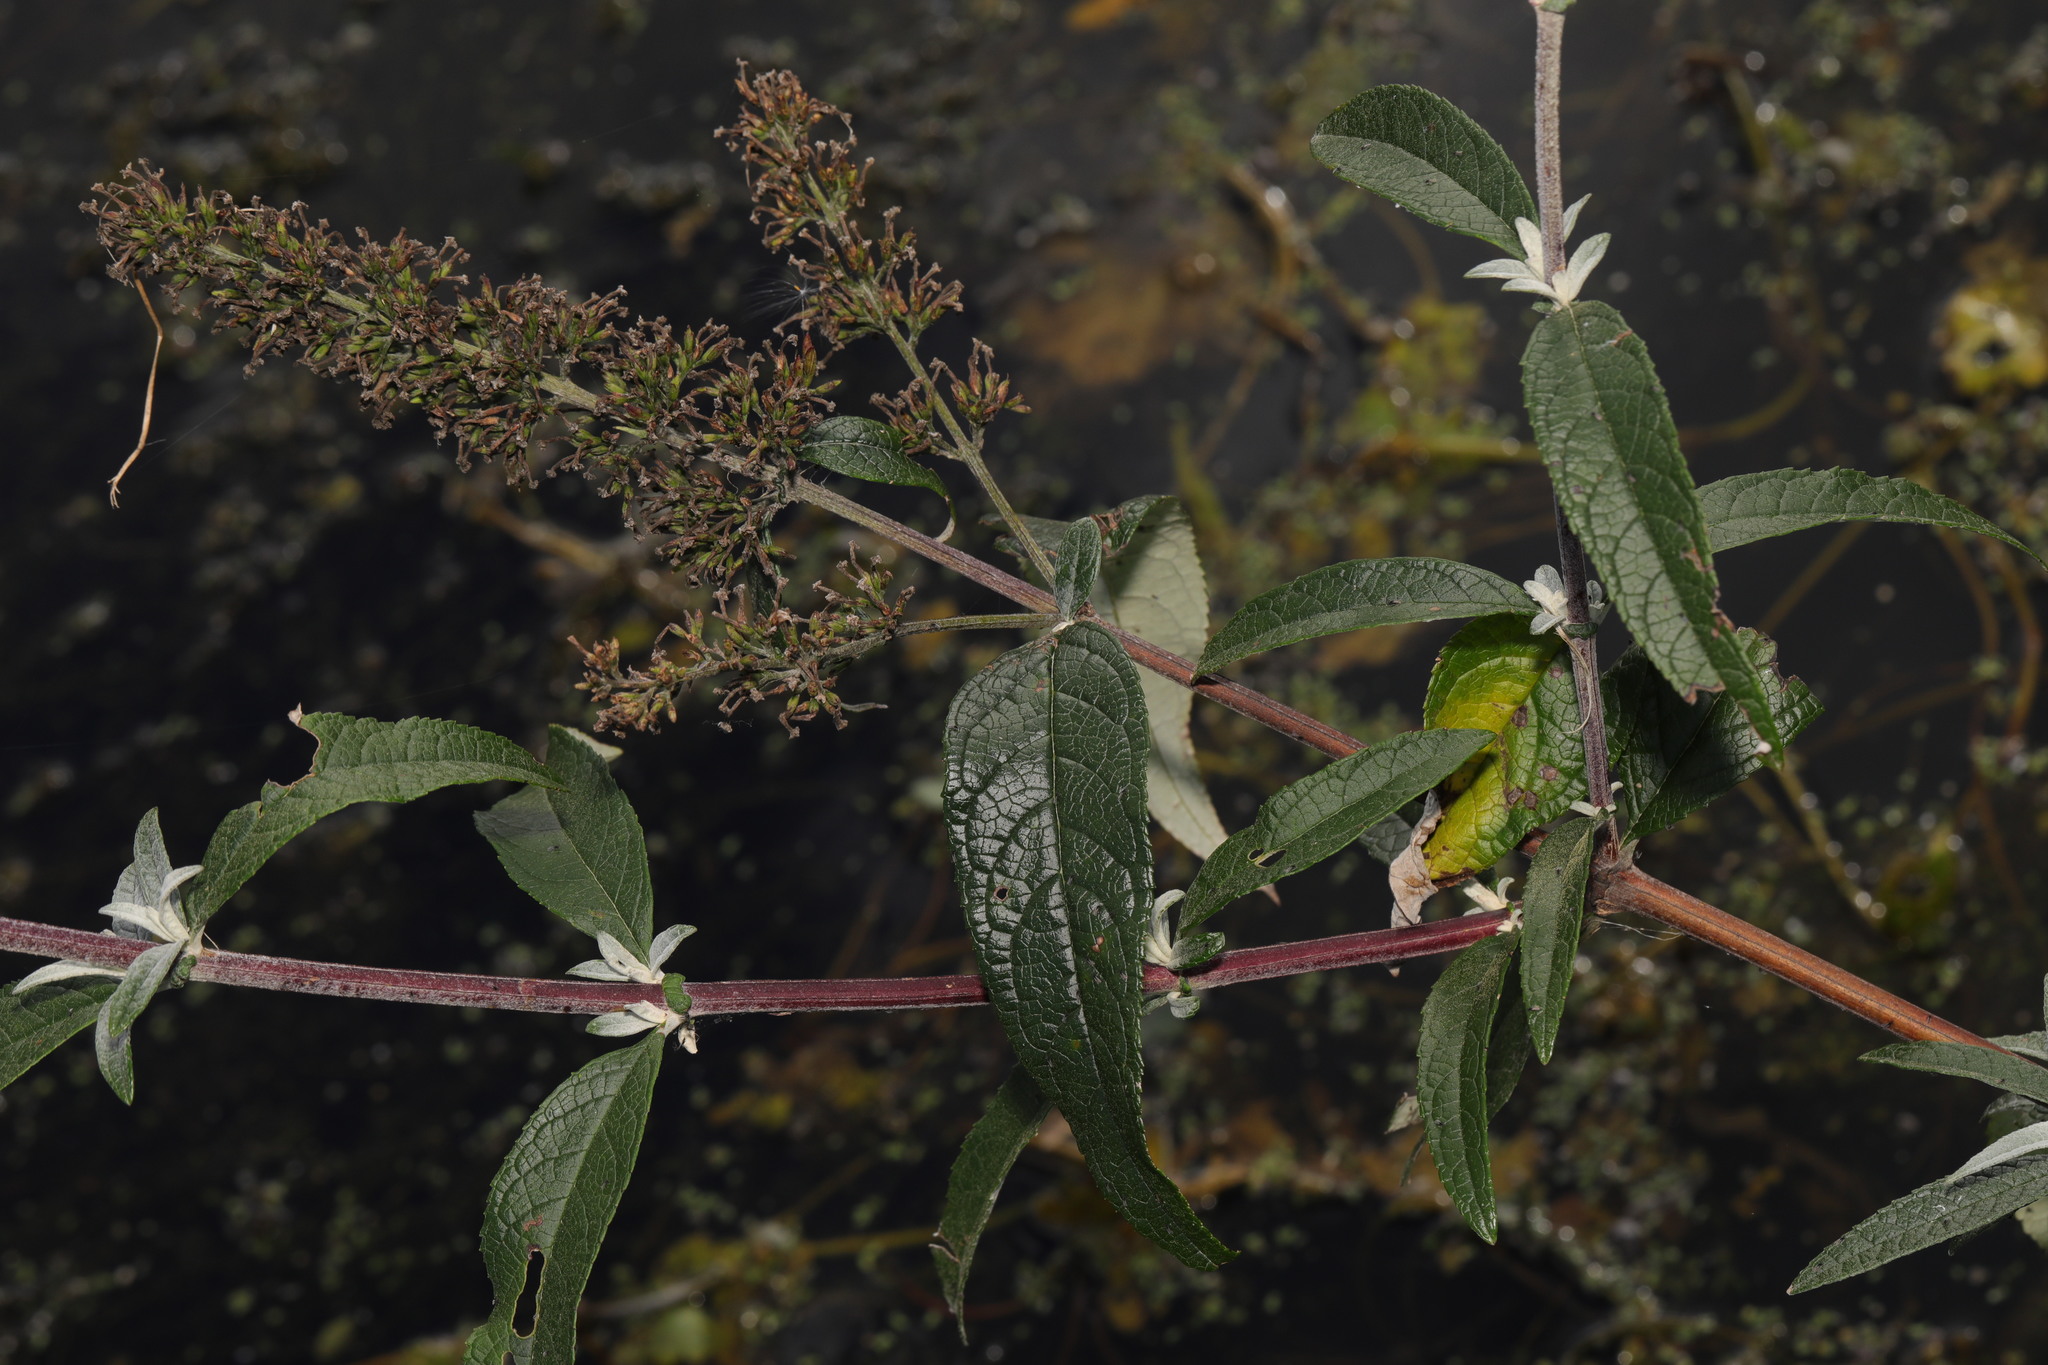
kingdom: Plantae
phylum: Tracheophyta
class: Magnoliopsida
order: Lamiales
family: Scrophulariaceae
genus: Buddleja
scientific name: Buddleja davidii
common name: Butterfly-bush
